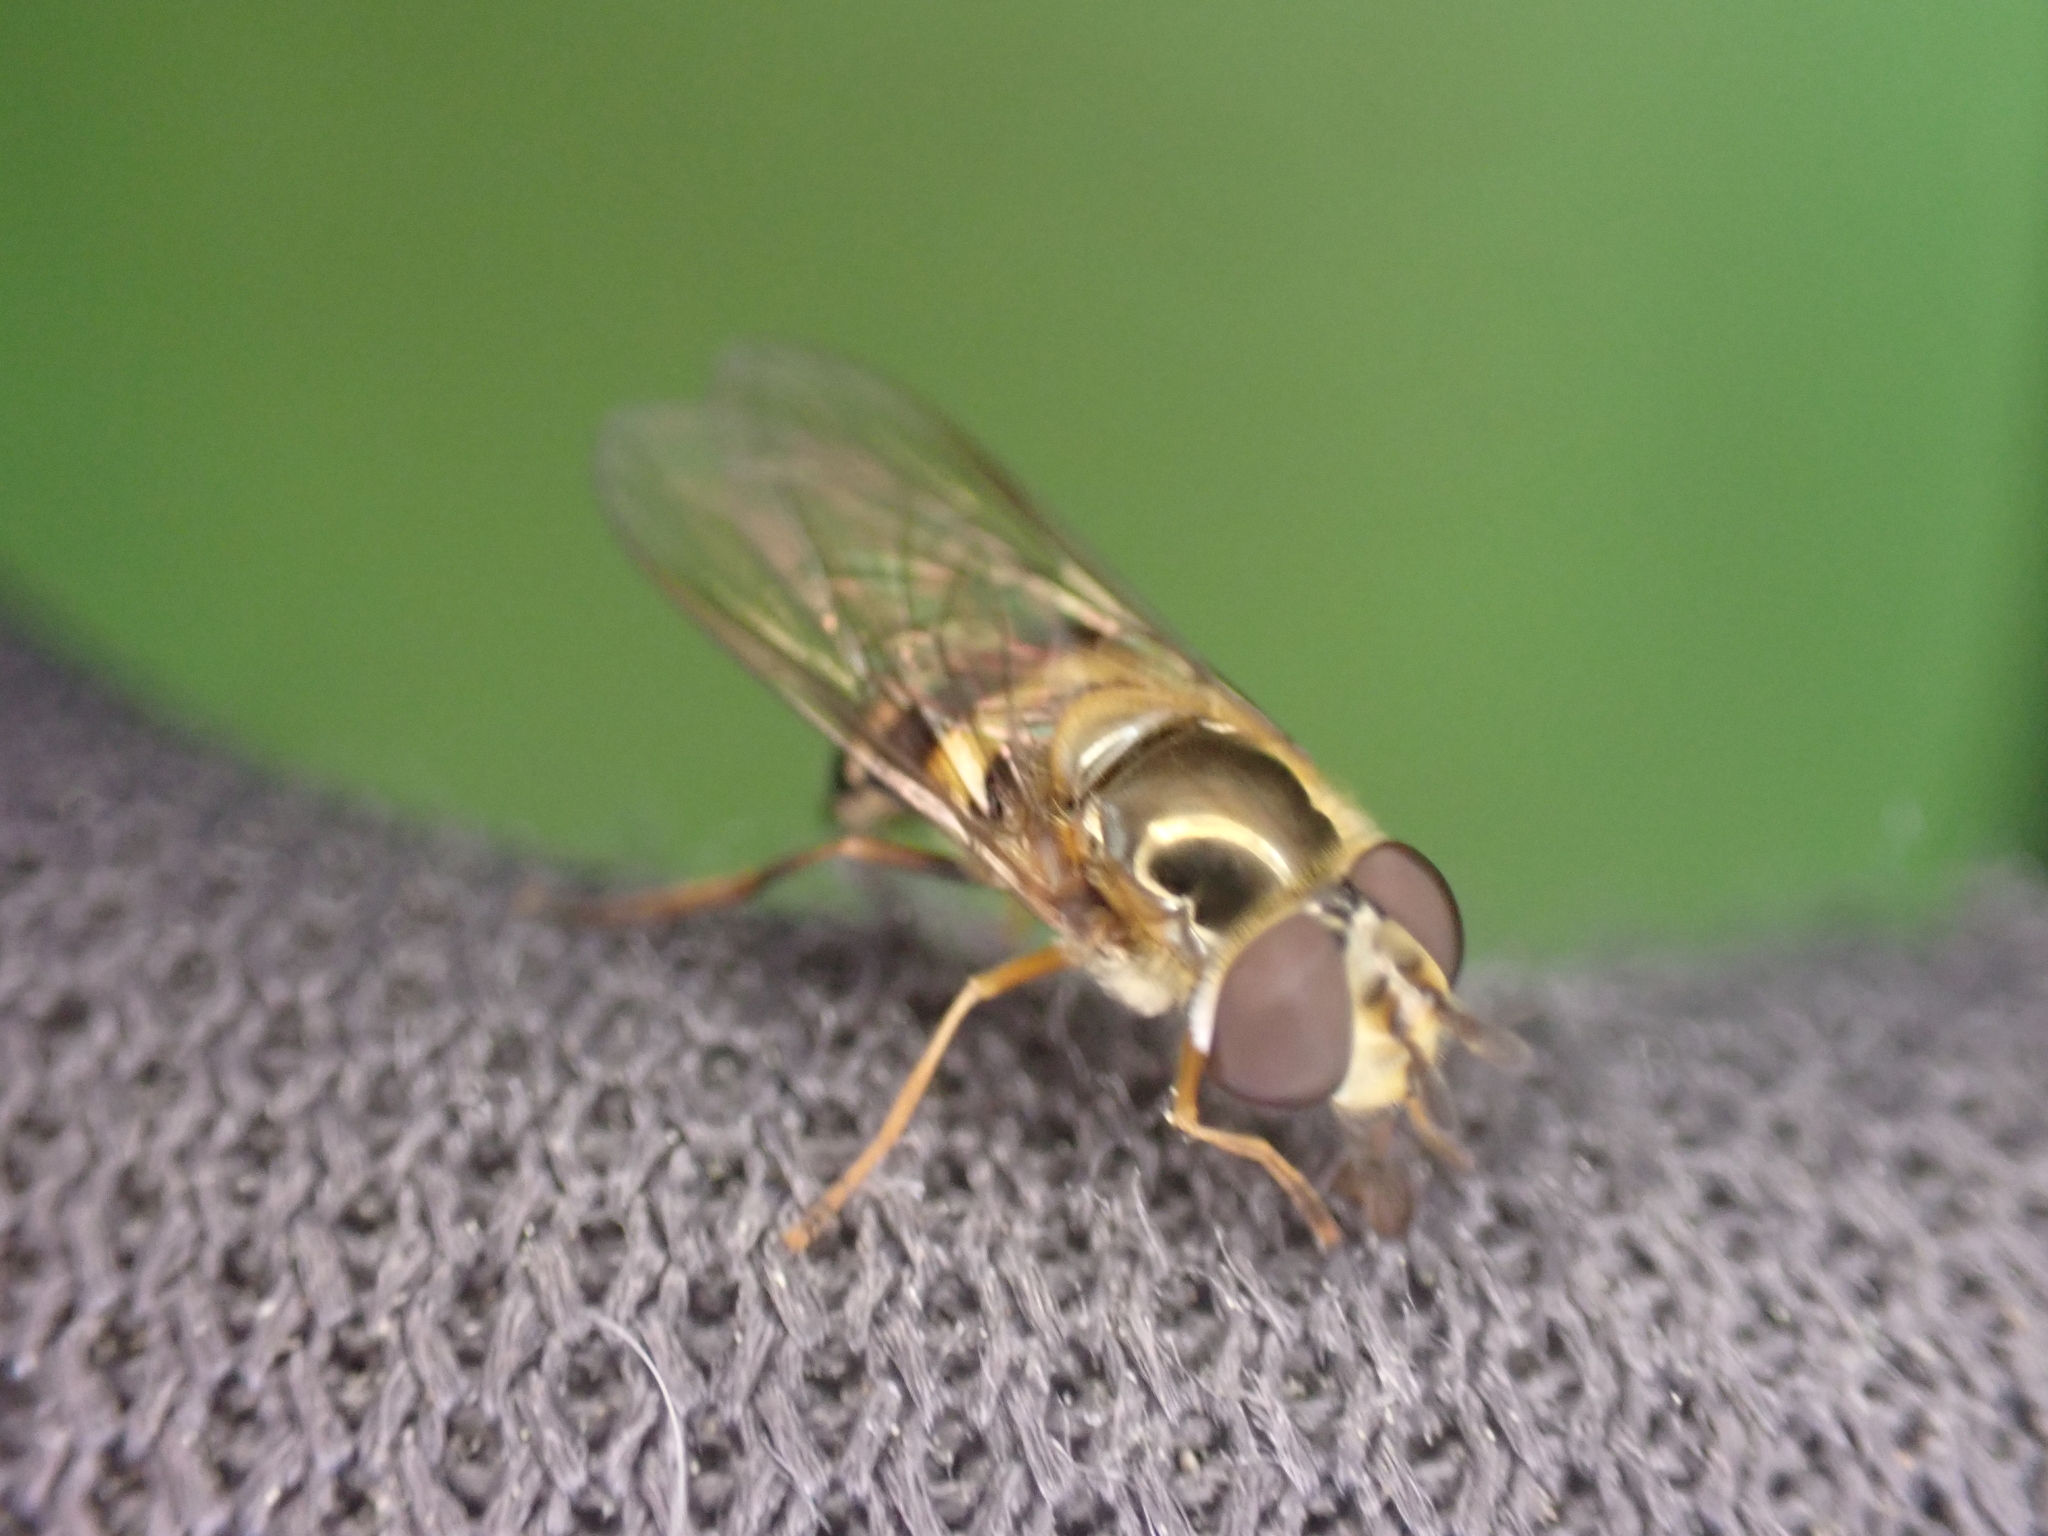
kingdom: Animalia
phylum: Arthropoda
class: Insecta
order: Diptera
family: Syrphidae
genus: Eupeodes
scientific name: Eupeodes
